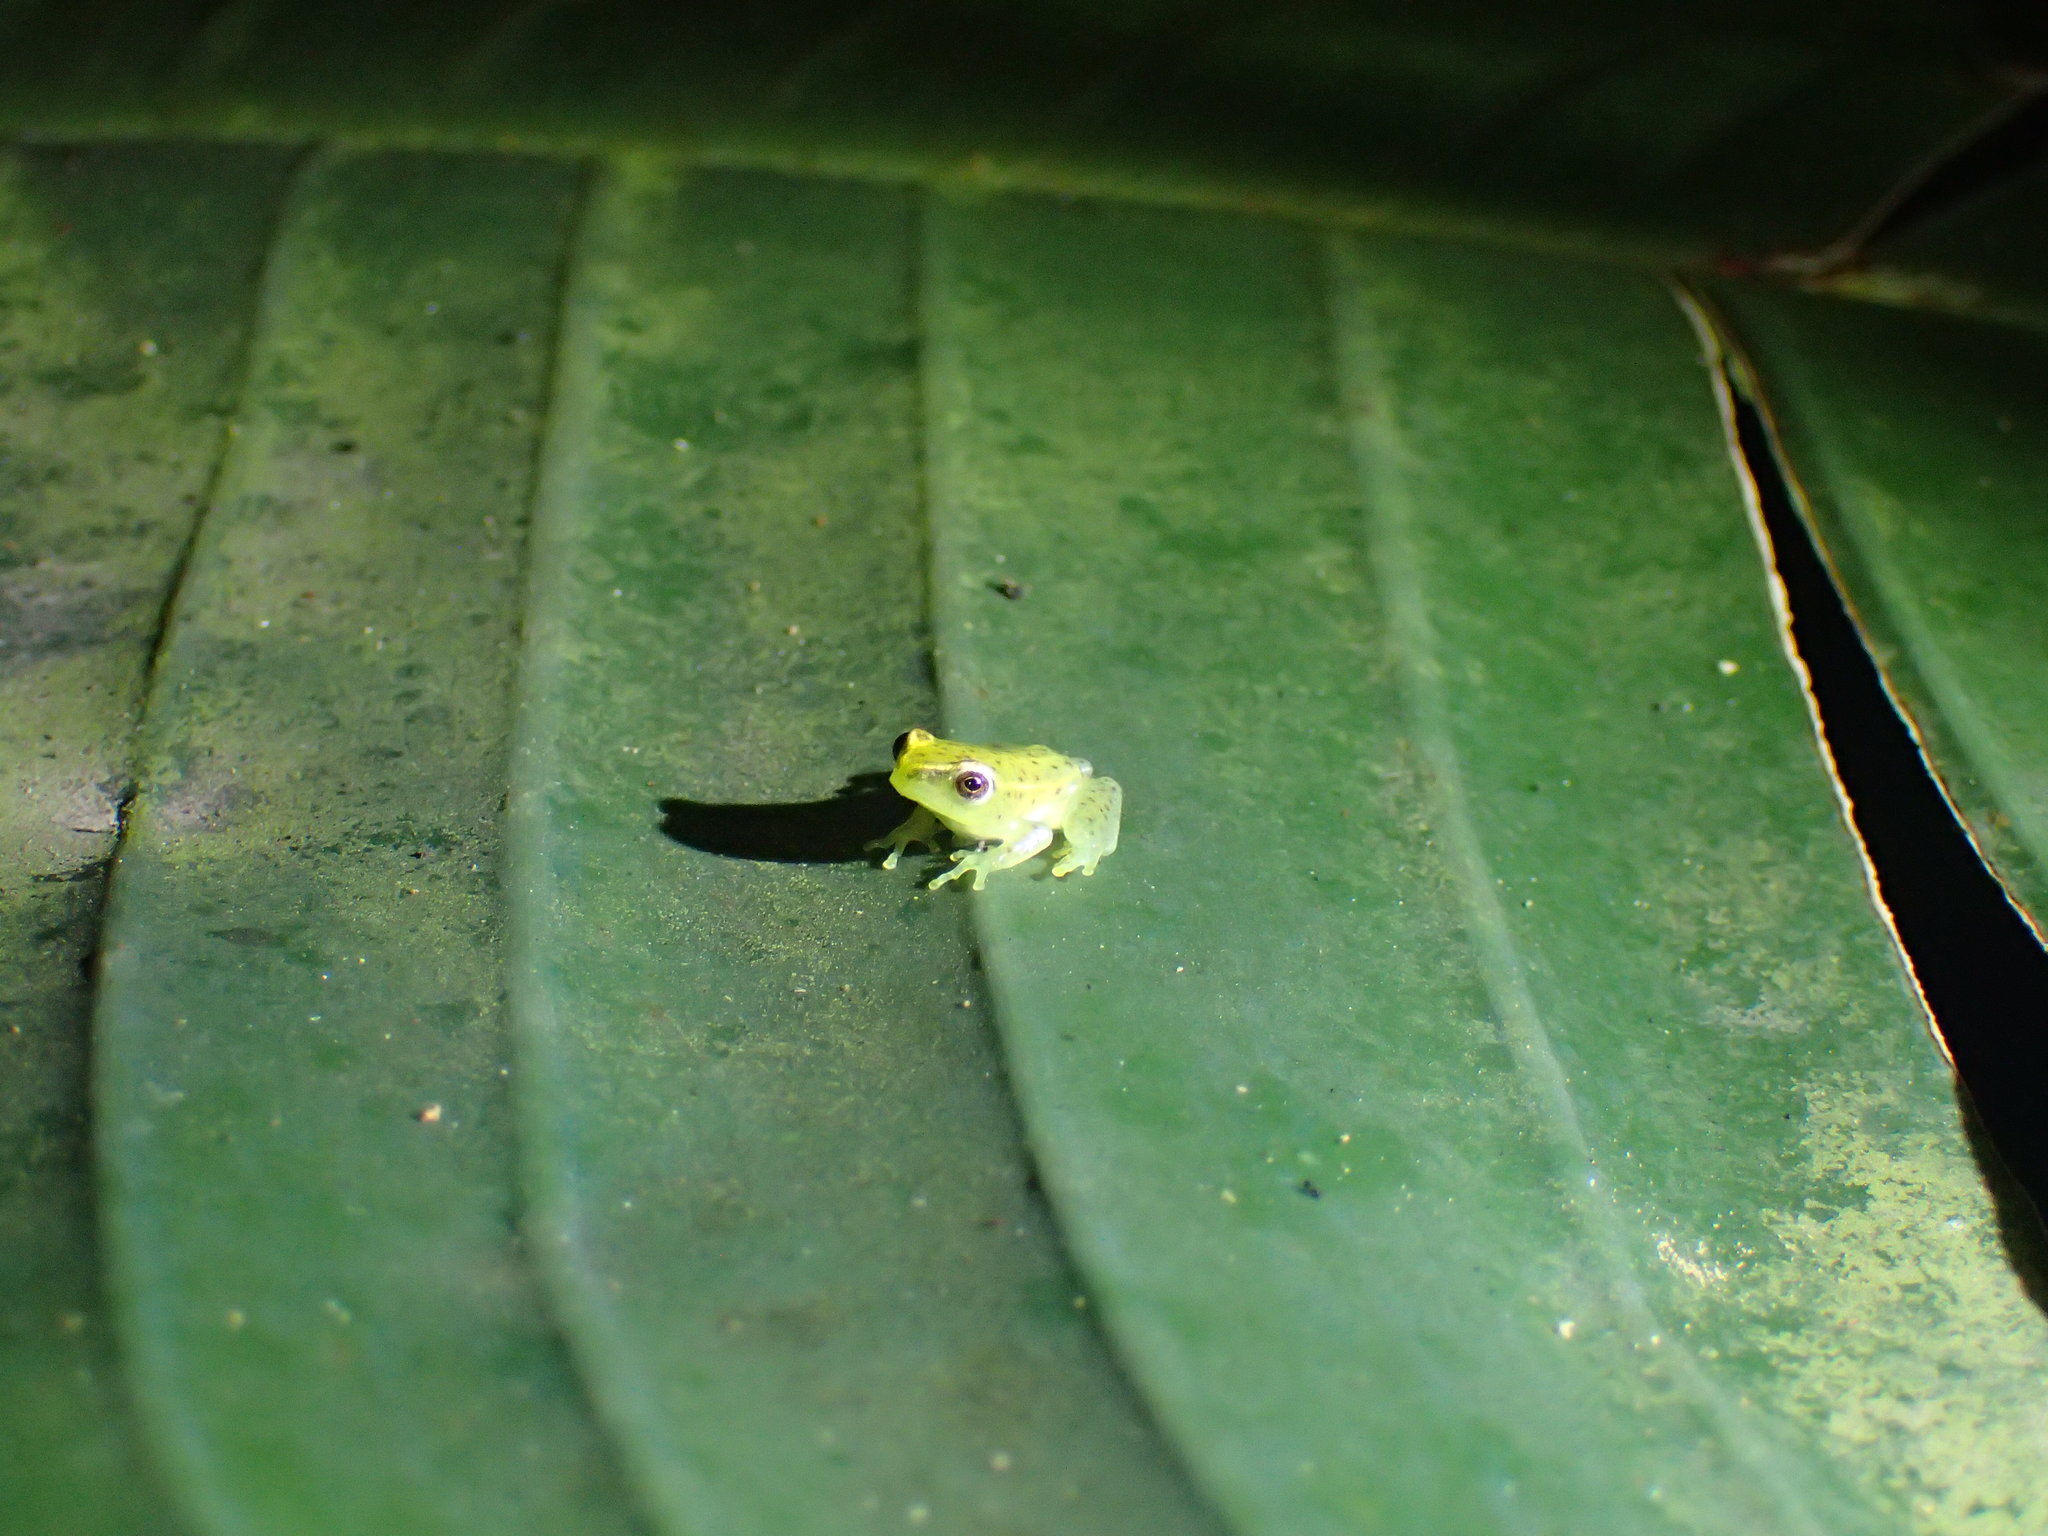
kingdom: Animalia
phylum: Chordata
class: Amphibia
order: Anura
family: Hyperoliidae
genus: Hyperolius
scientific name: Hyperolius pusillus
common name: Water lily reed frog
